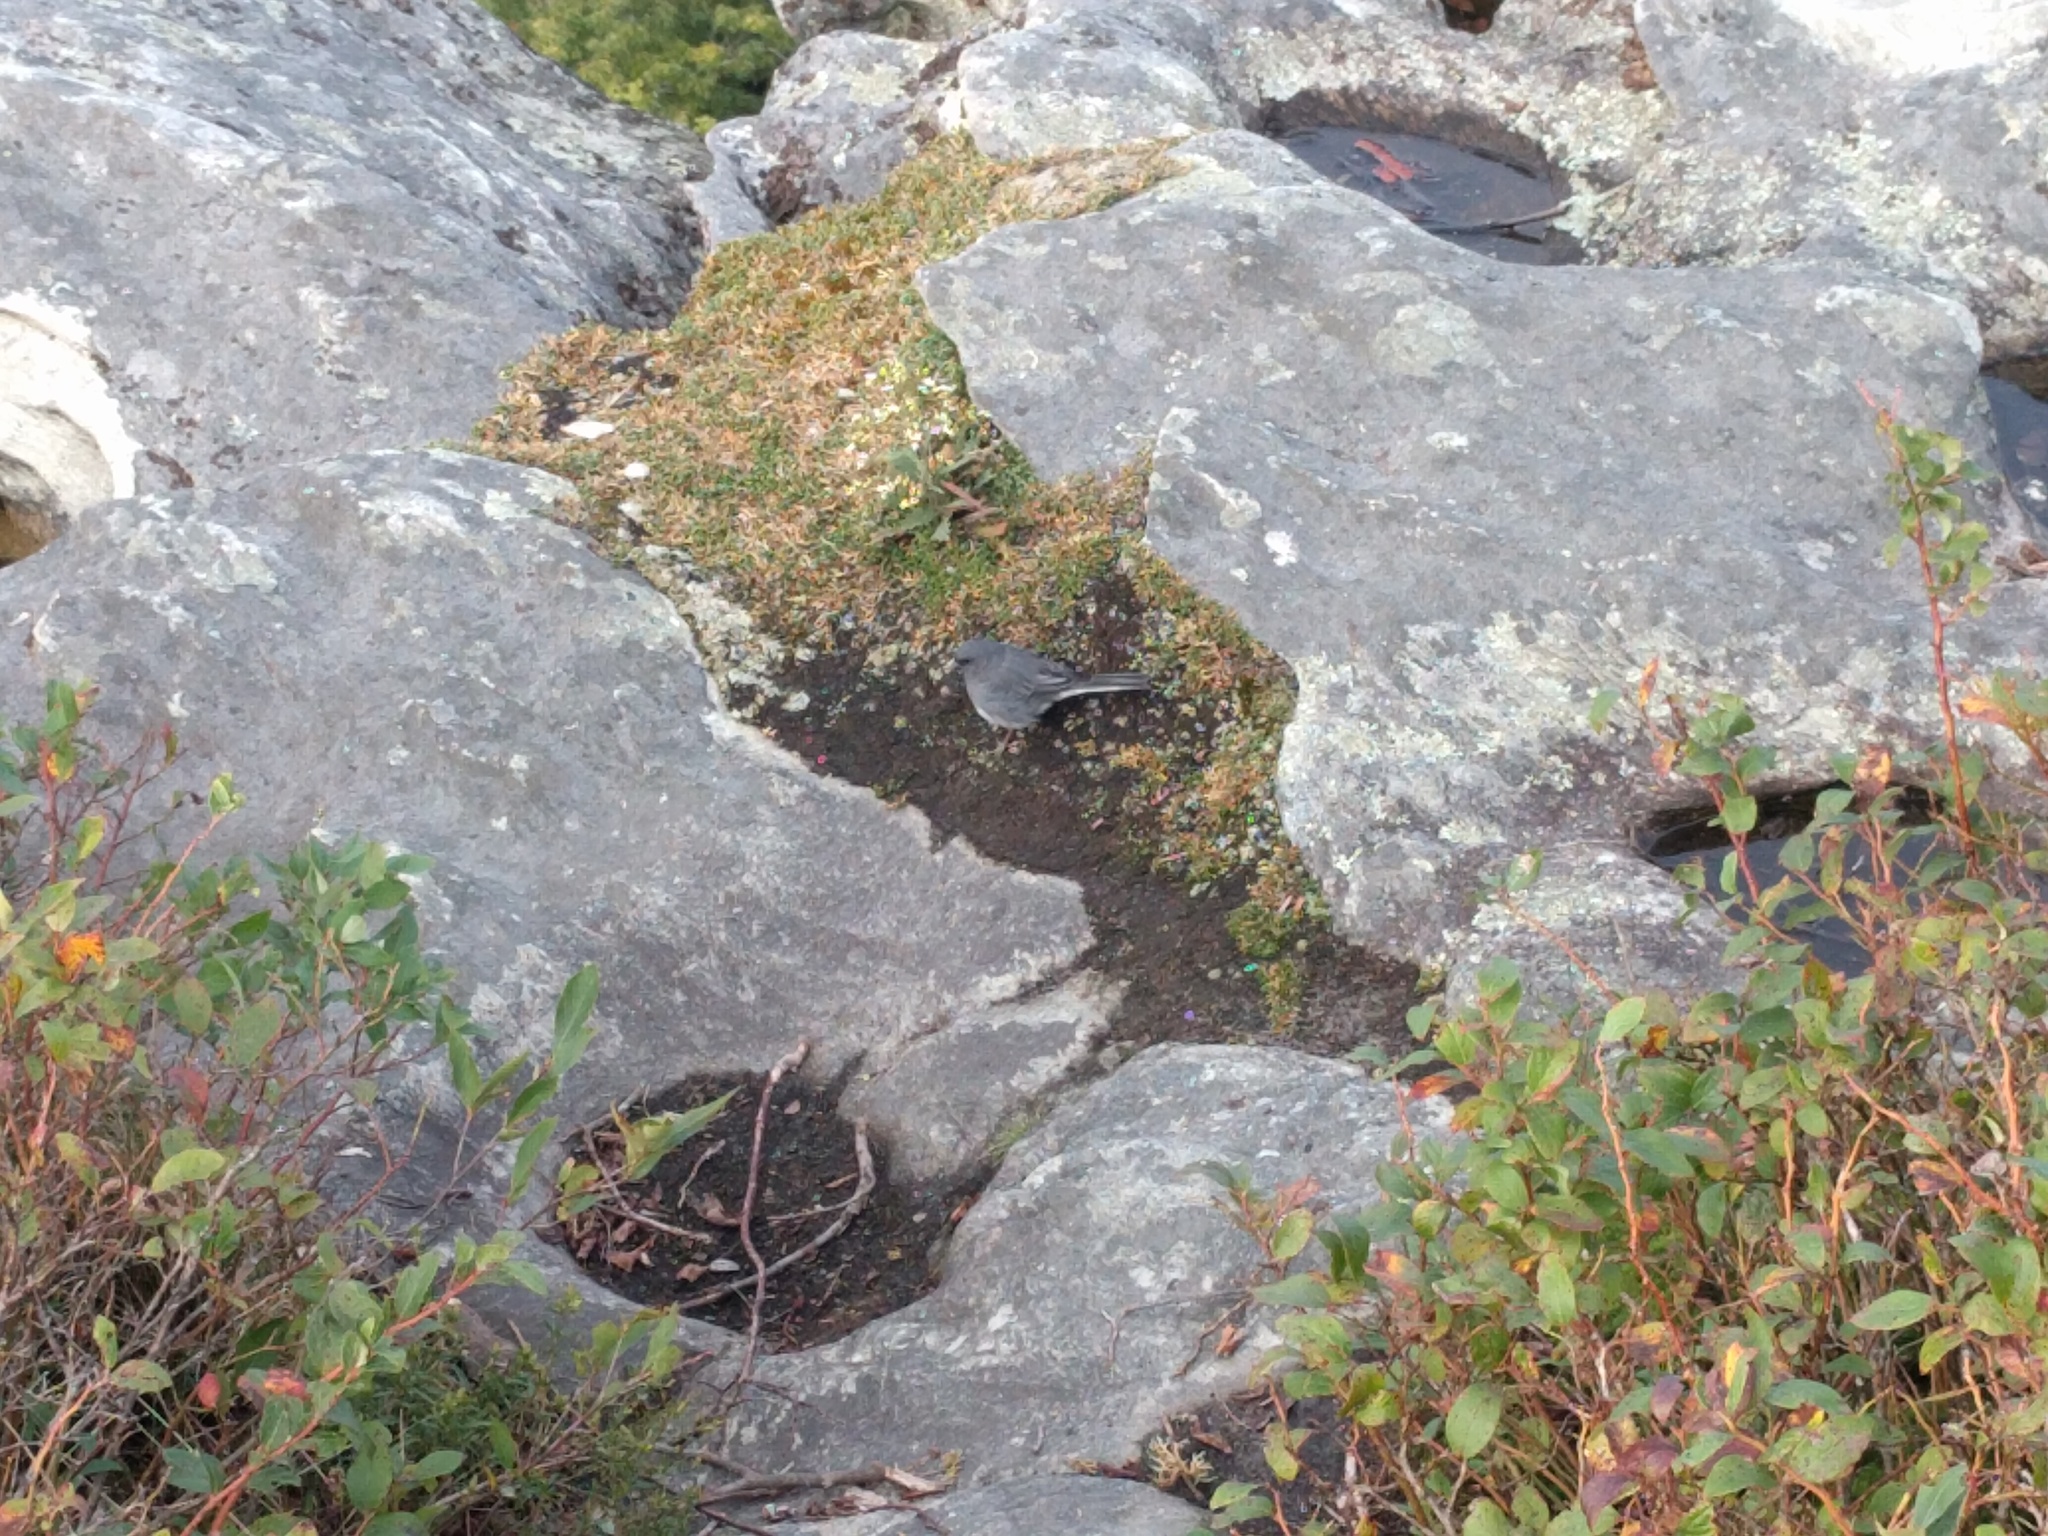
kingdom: Animalia
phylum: Chordata
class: Aves
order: Passeriformes
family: Passerellidae
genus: Junco
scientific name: Junco hyemalis
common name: Dark-eyed junco
